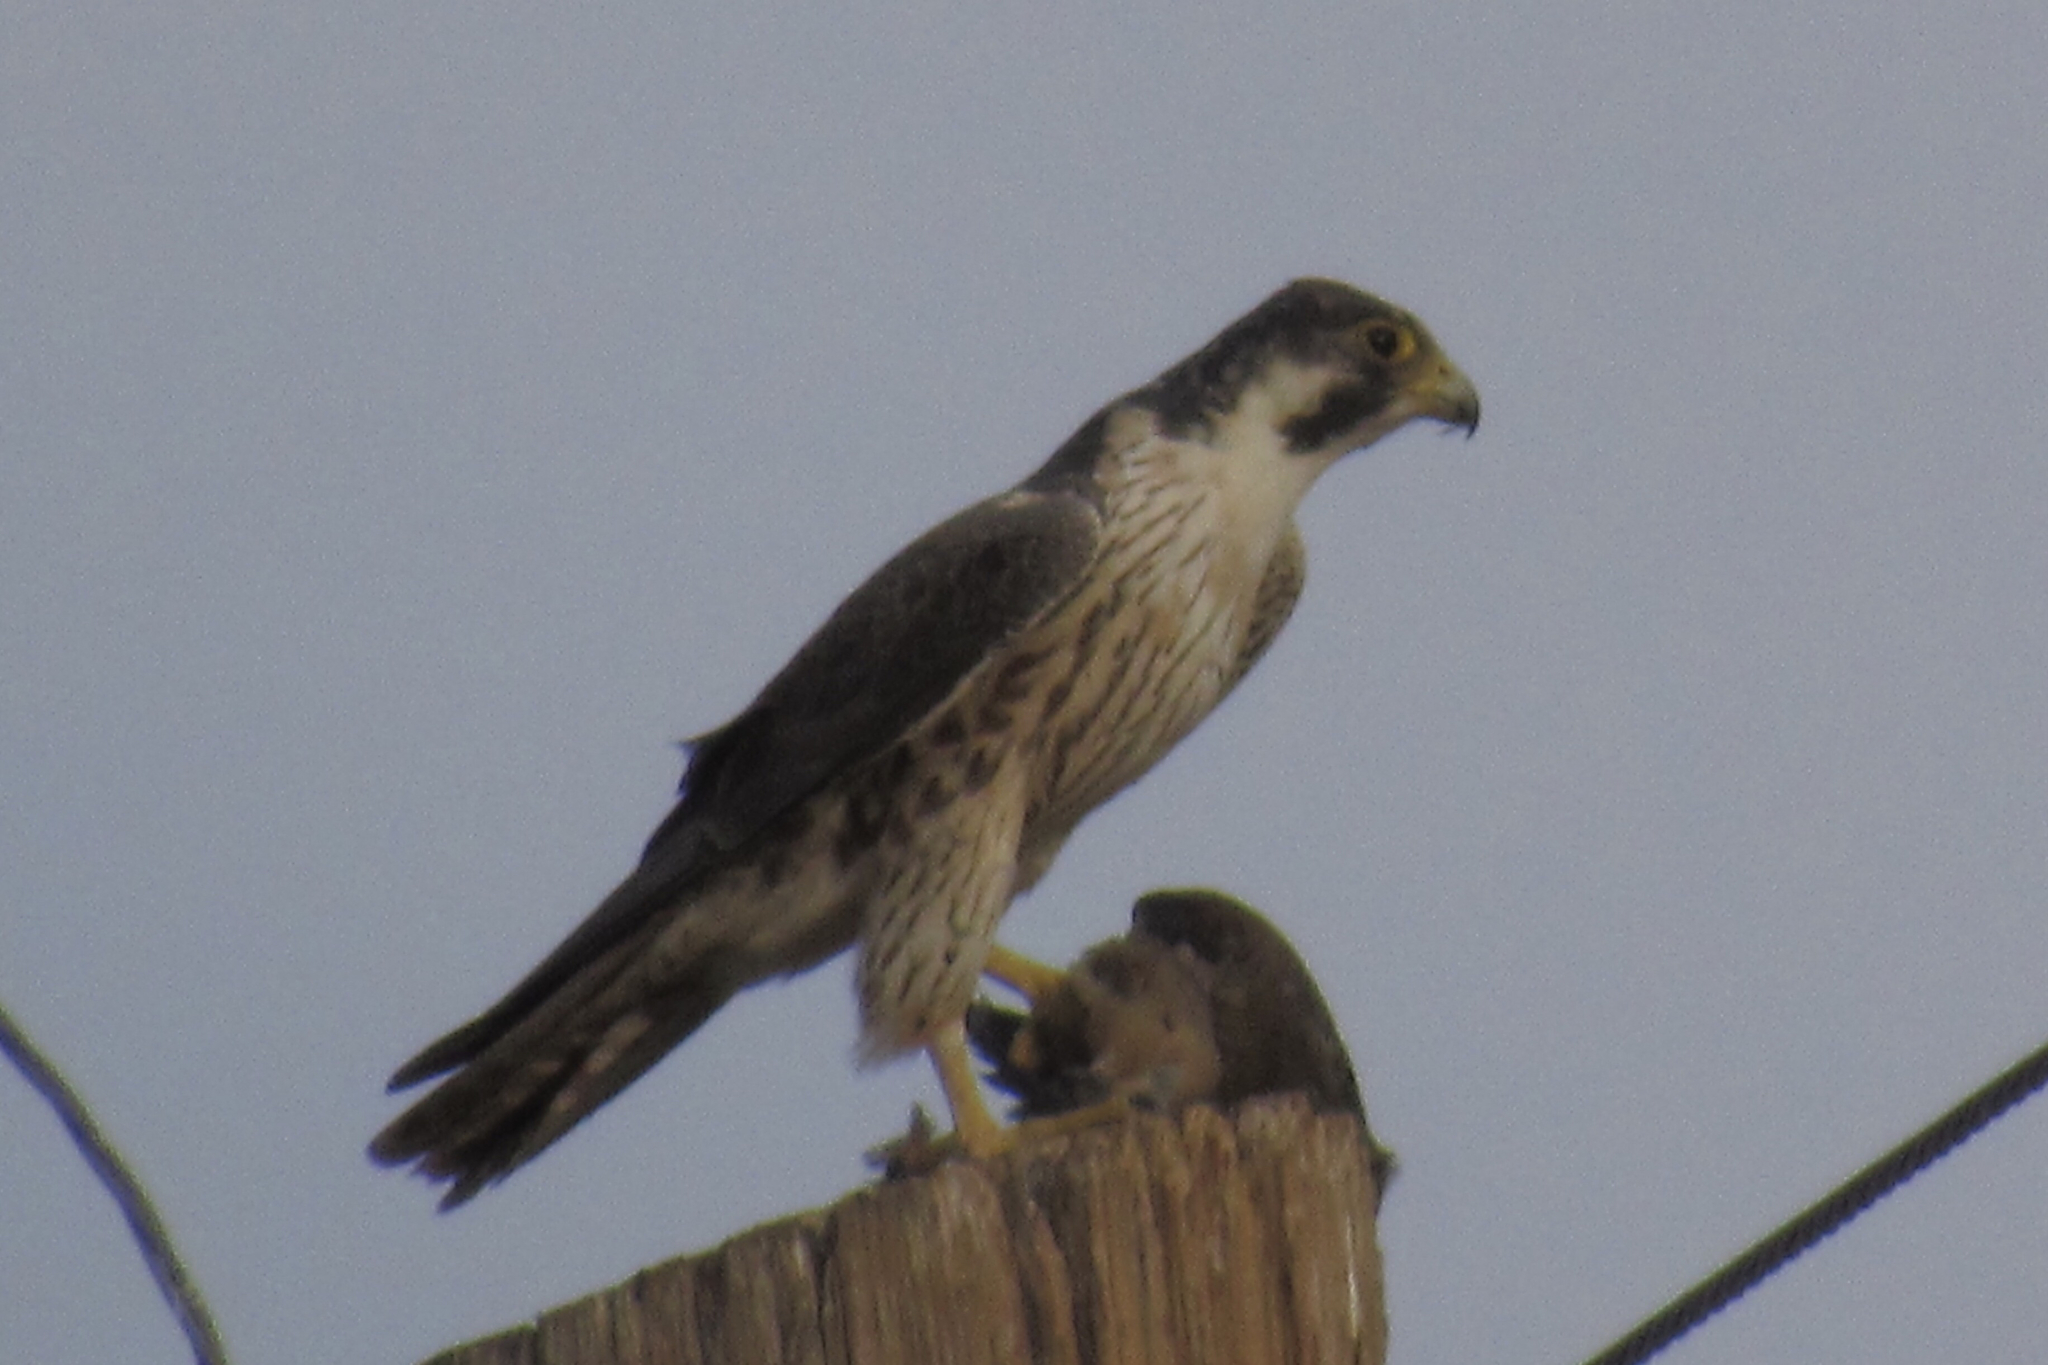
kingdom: Animalia
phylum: Chordata
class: Aves
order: Falconiformes
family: Falconidae
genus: Falco
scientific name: Falco peregrinus
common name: Peregrine falcon
